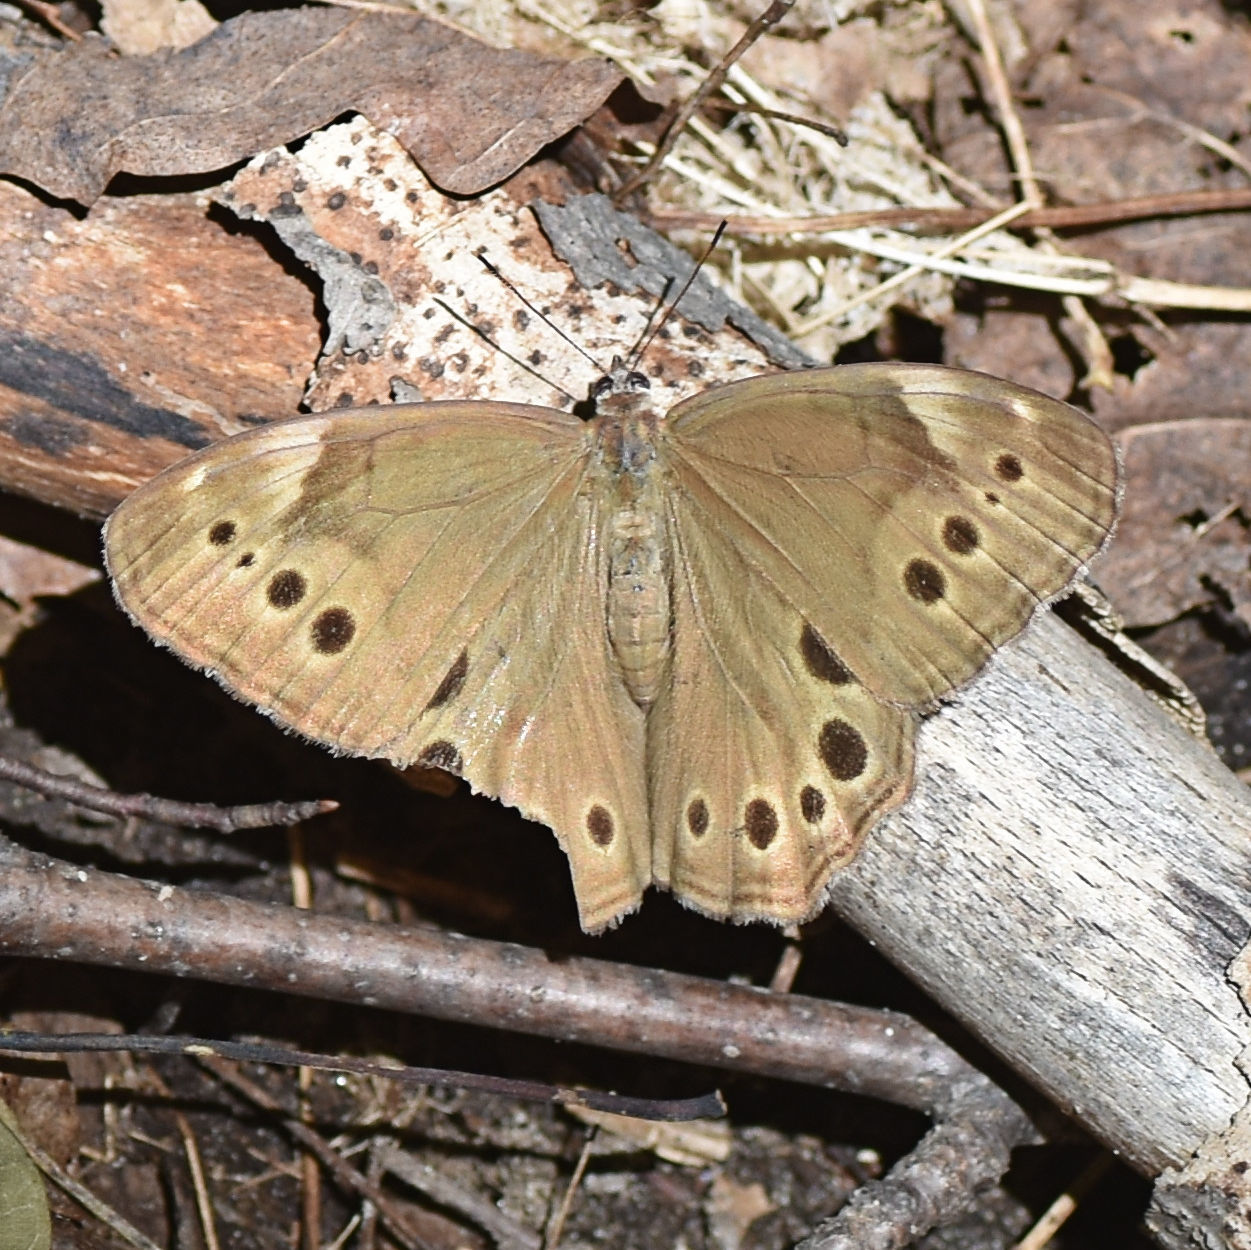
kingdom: Animalia
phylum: Arthropoda
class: Insecta
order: Lepidoptera
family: Nymphalidae
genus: Lethe
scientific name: Lethe anthedon
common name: Northern pearly-eye
